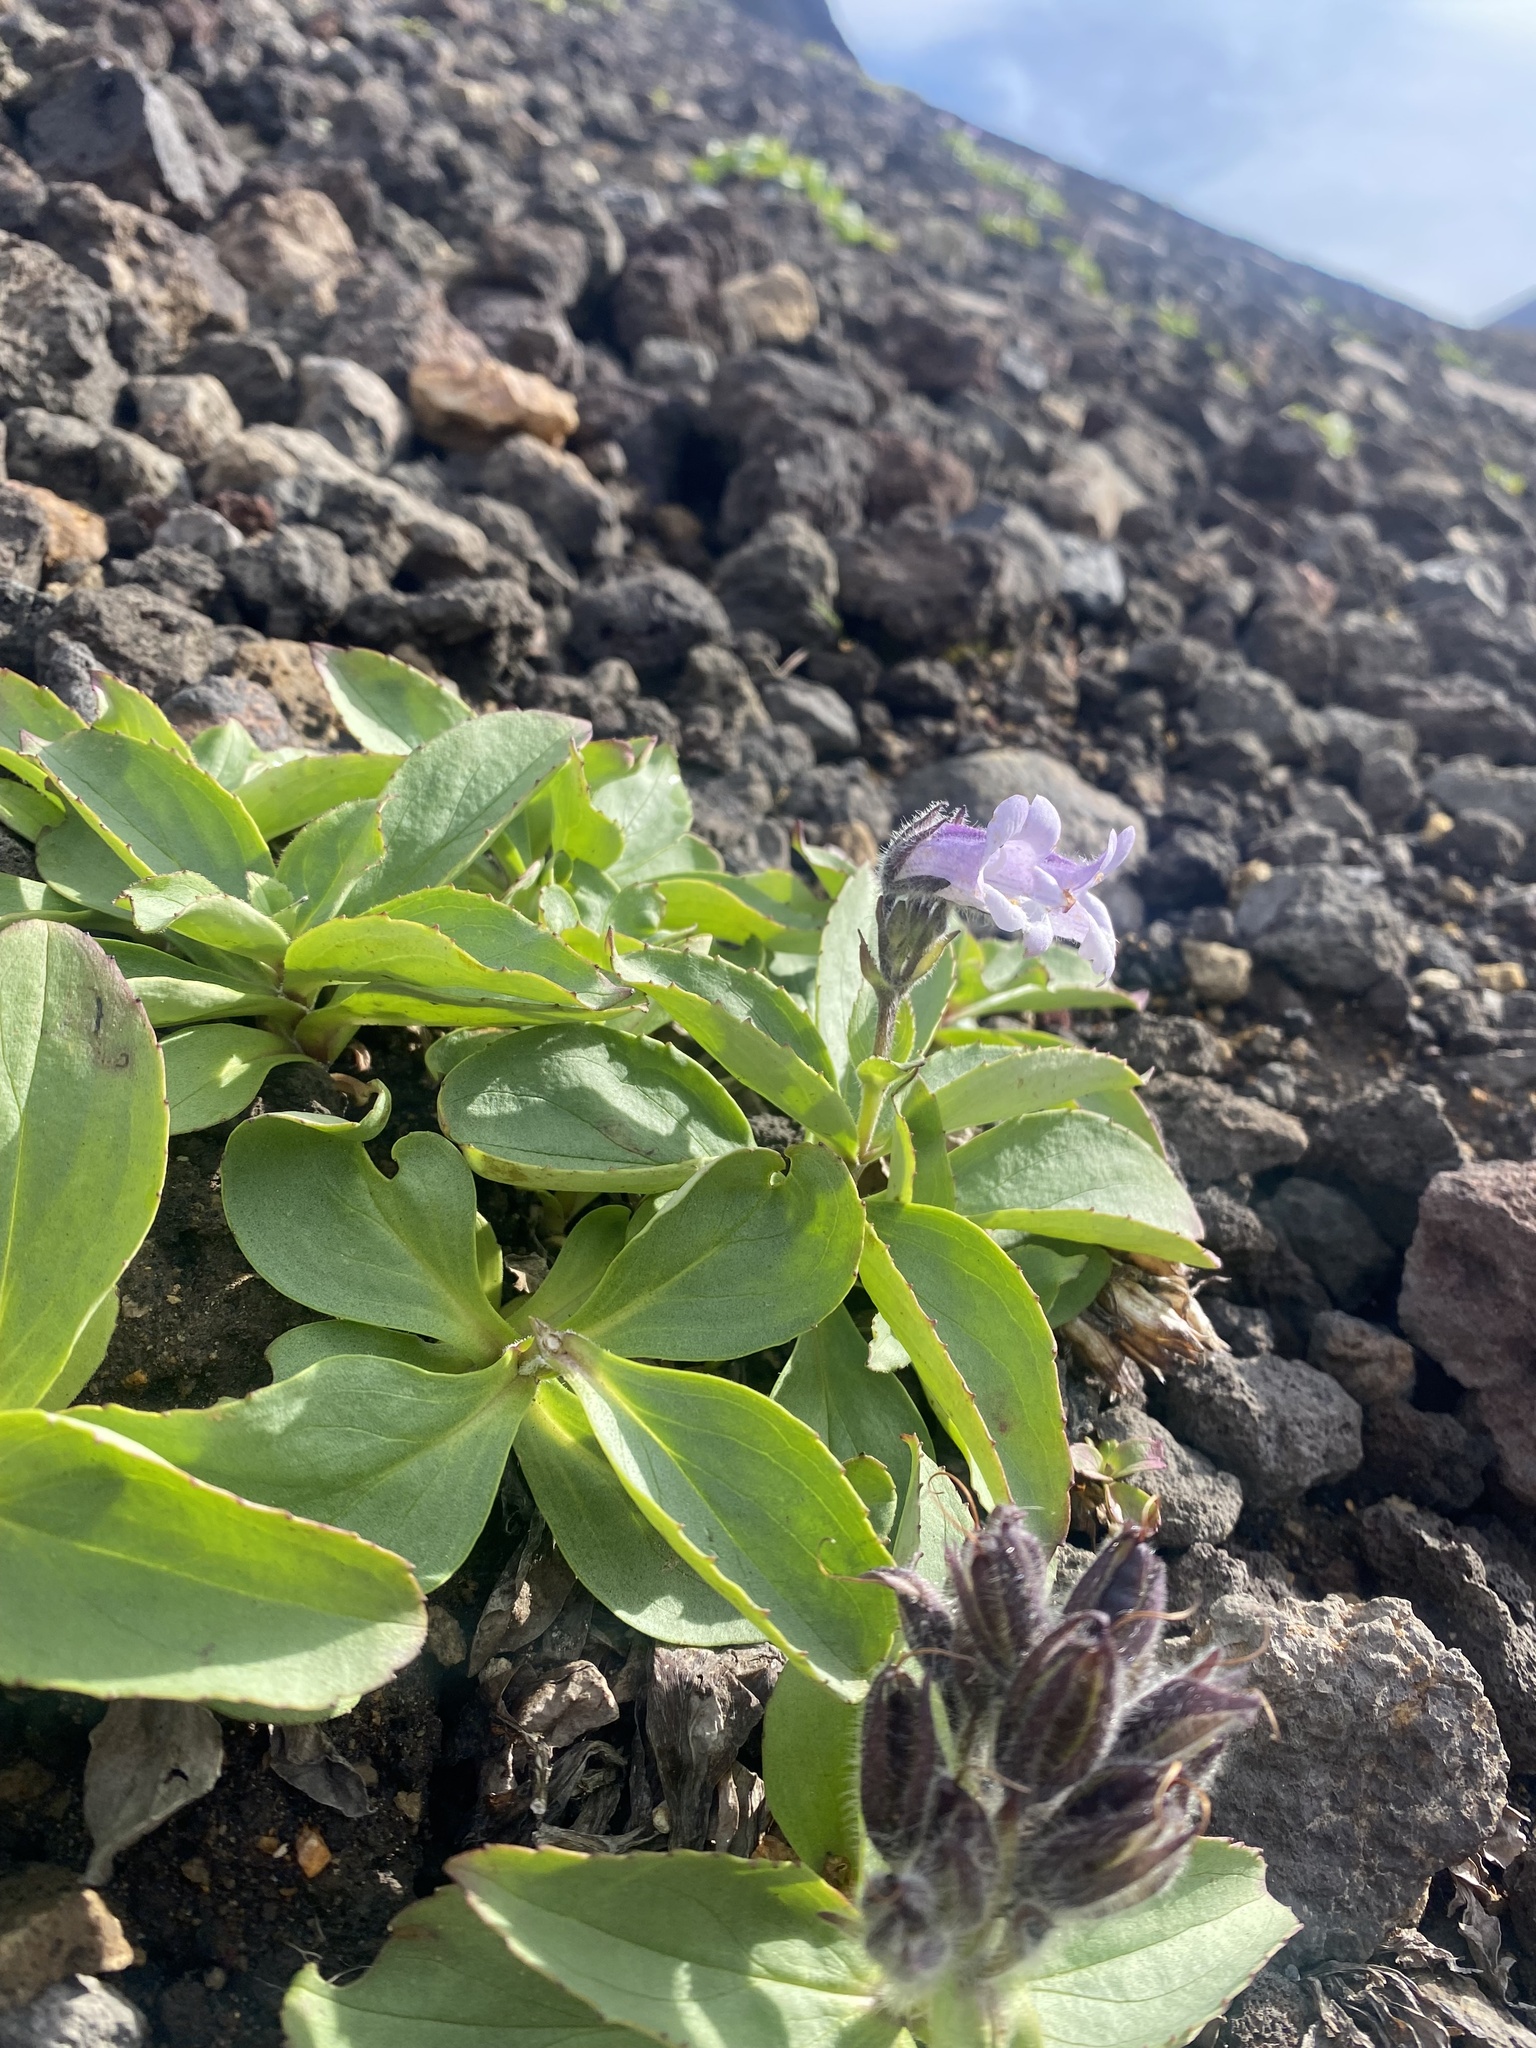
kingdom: Plantae
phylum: Tracheophyta
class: Magnoliopsida
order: Lamiales
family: Plantaginaceae
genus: Pennellianthus
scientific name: Pennellianthus frutescens
